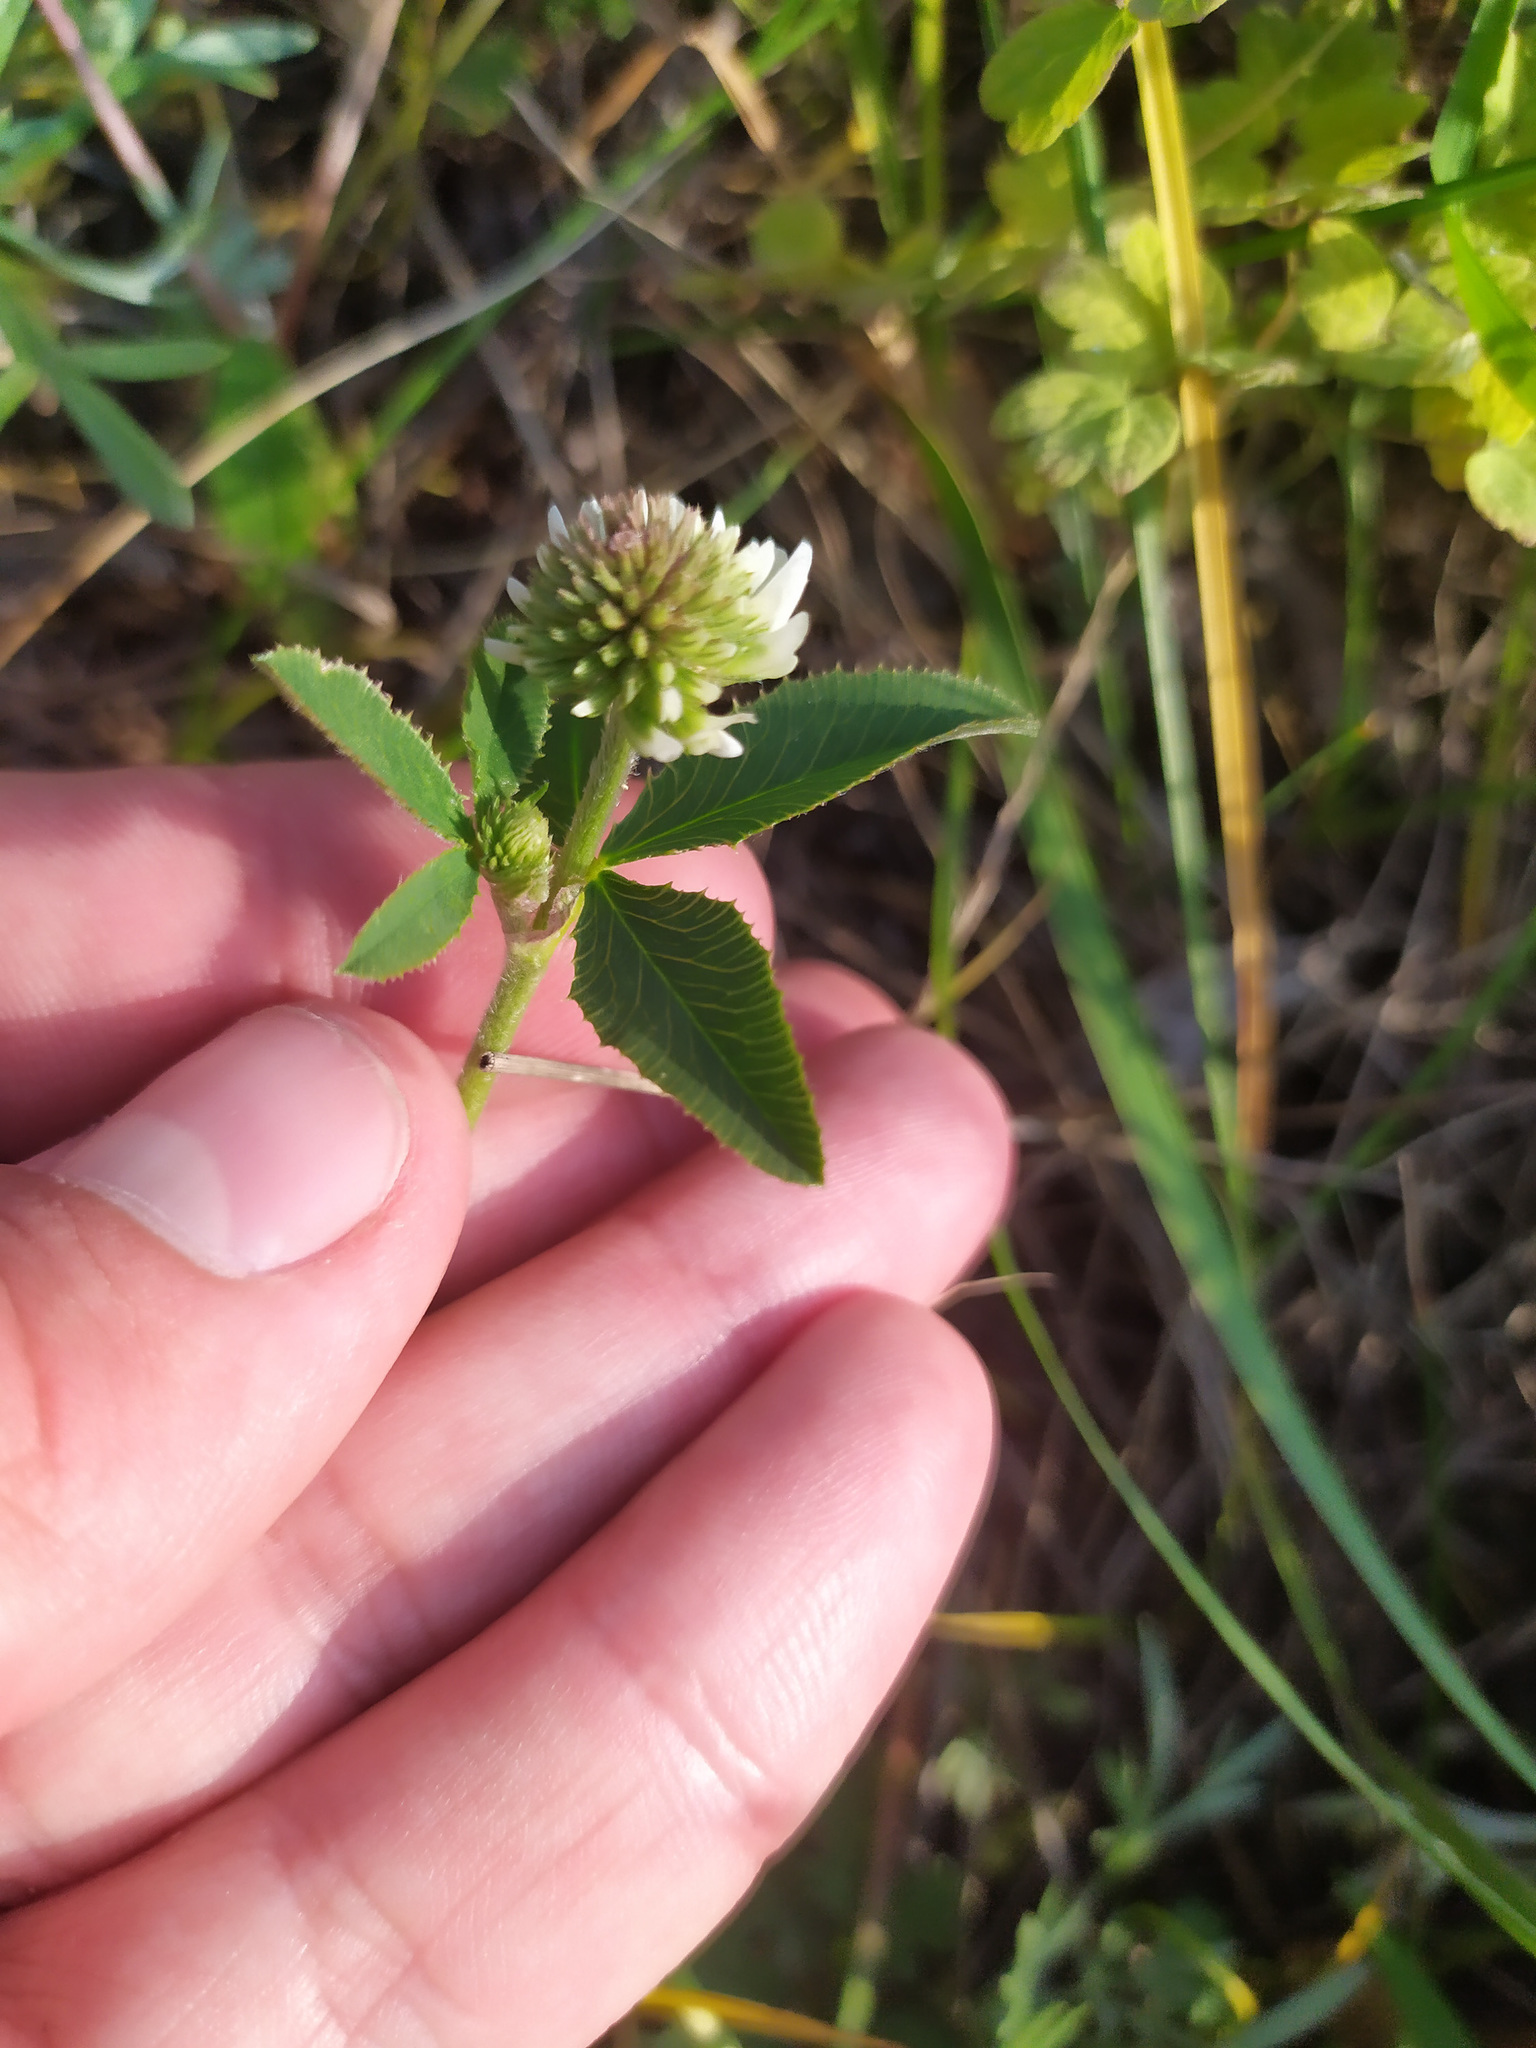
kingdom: Plantae
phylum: Tracheophyta
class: Magnoliopsida
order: Fabales
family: Fabaceae
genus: Trifolium
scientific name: Trifolium montanum
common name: Mountain clover
